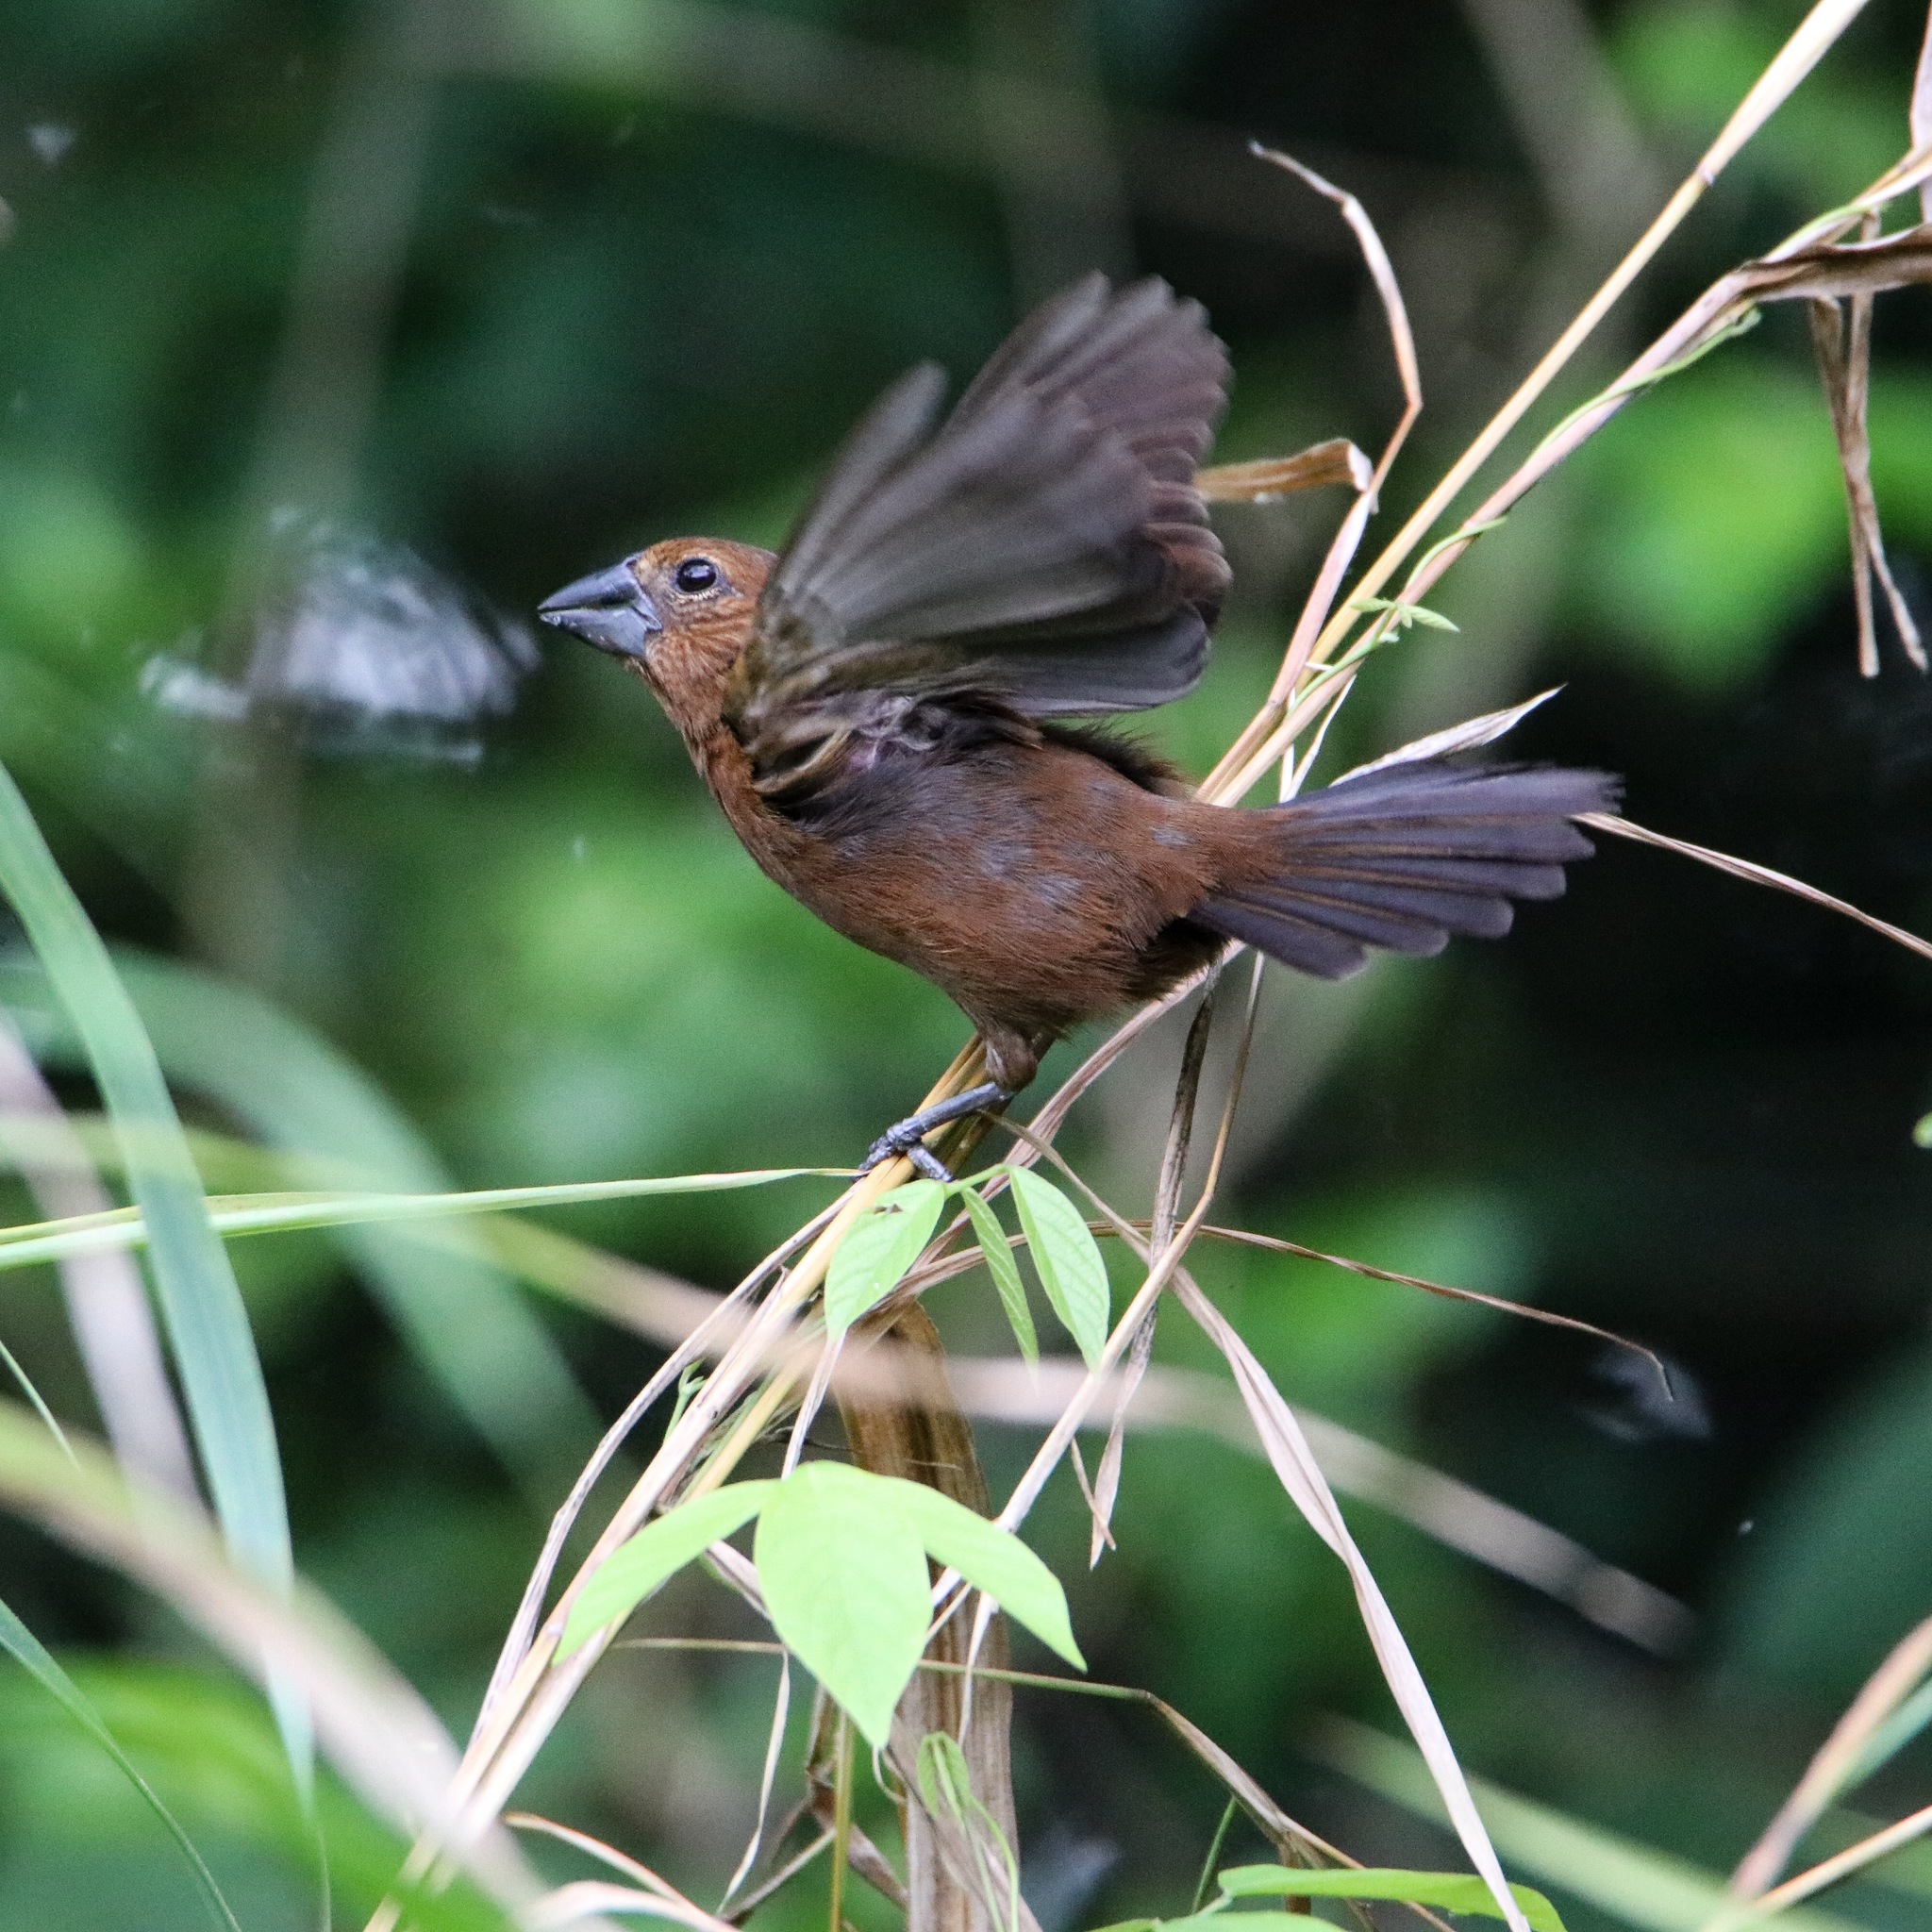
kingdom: Animalia
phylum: Chordata
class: Aves
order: Passeriformes
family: Cardinalidae
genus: Cyanocompsa
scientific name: Cyanocompsa cyanoides
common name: Blue-black grosbeak
